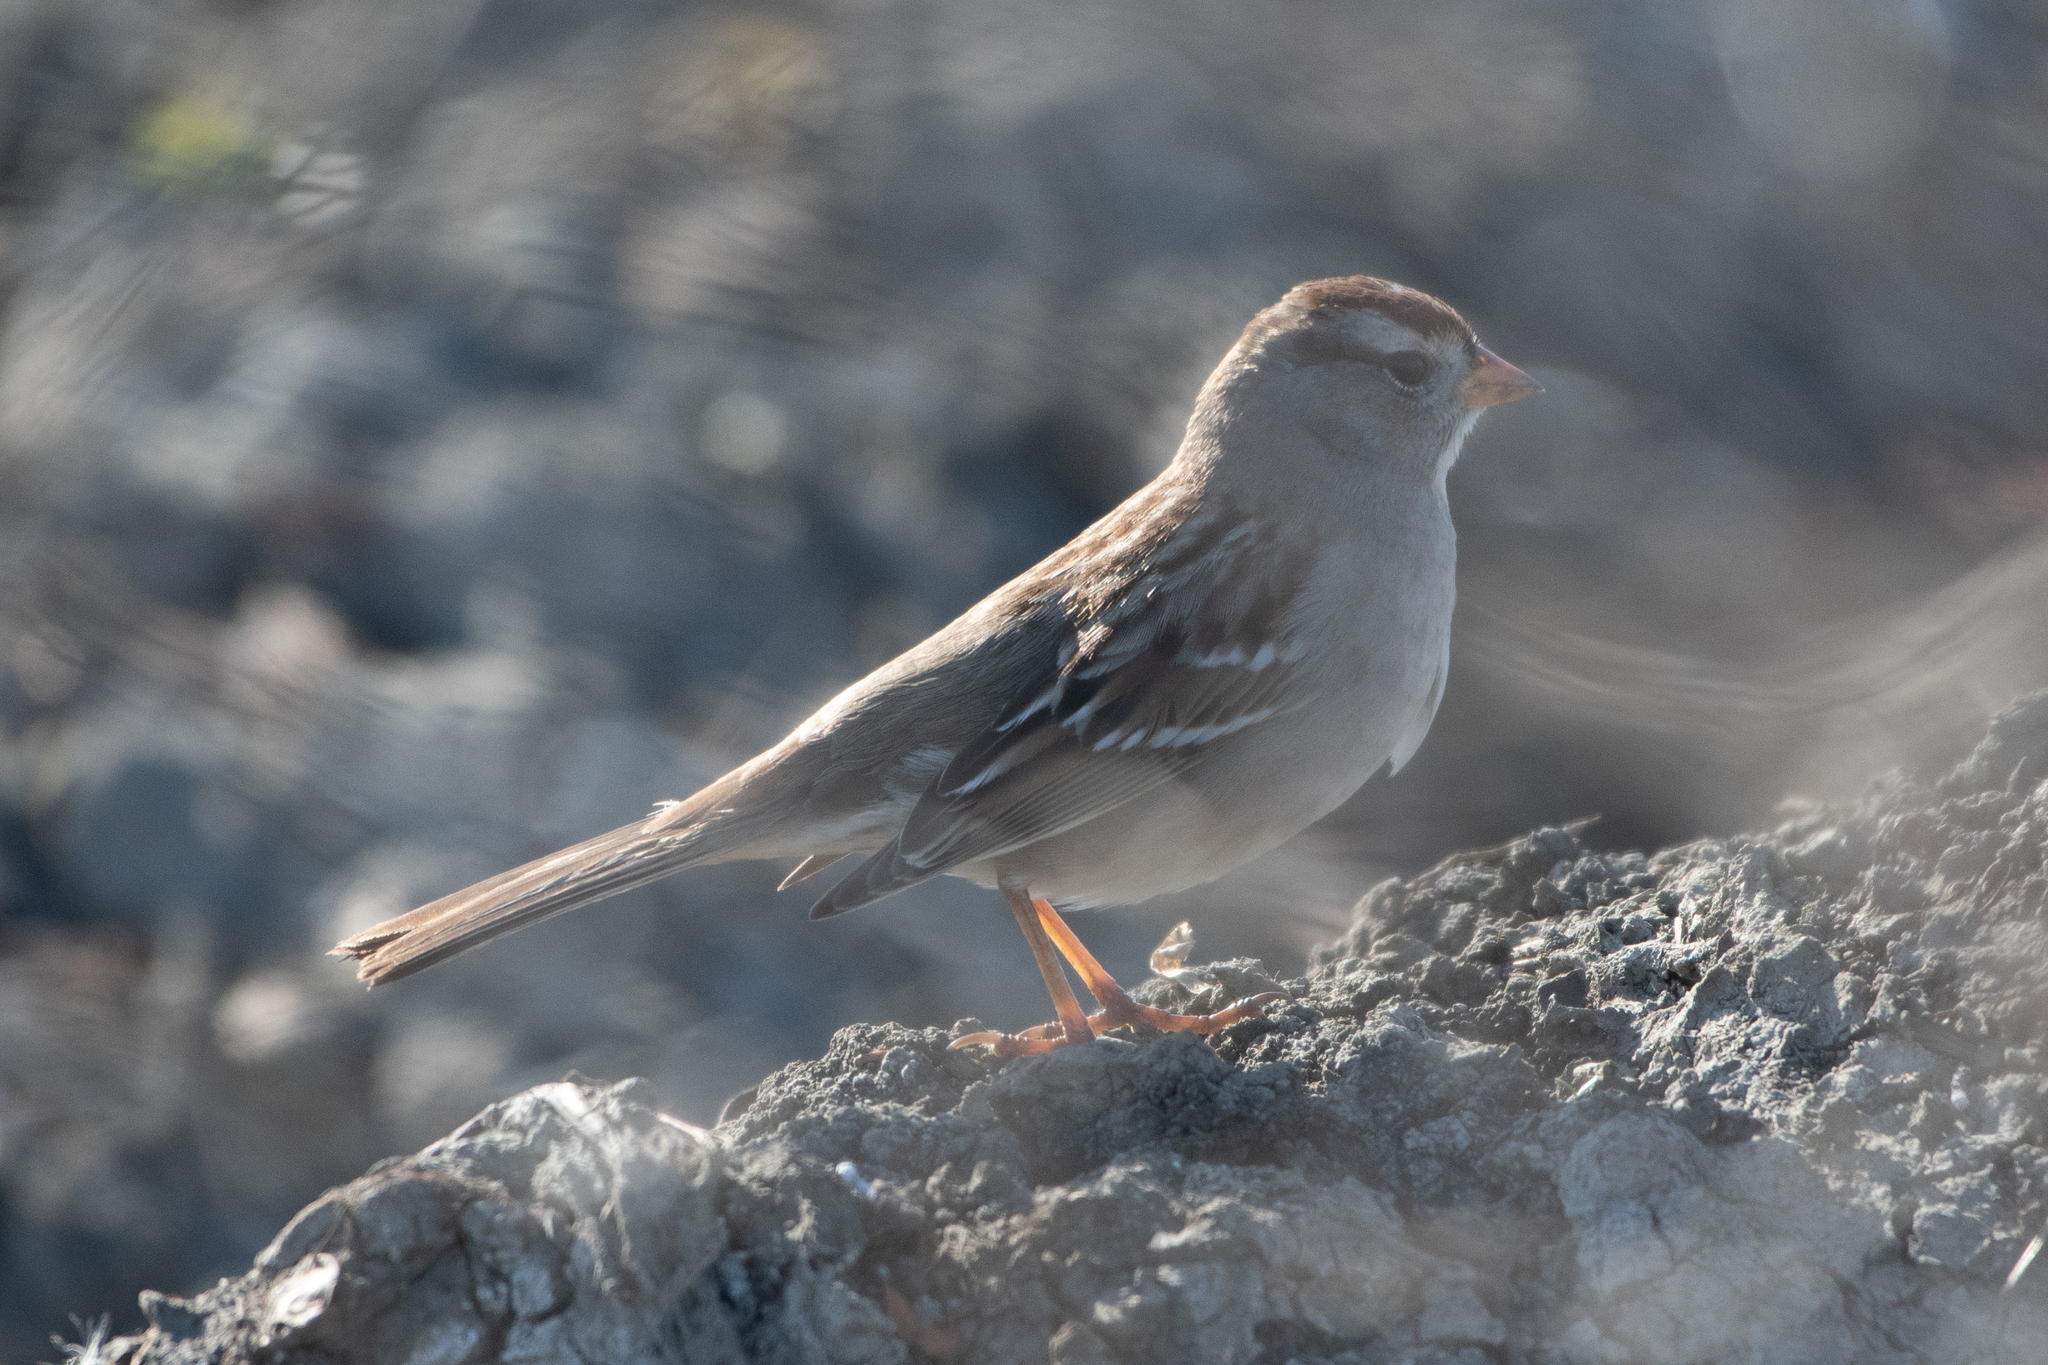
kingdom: Animalia
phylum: Chordata
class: Aves
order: Passeriformes
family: Passerellidae
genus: Zonotrichia
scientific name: Zonotrichia leucophrys
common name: White-crowned sparrow
